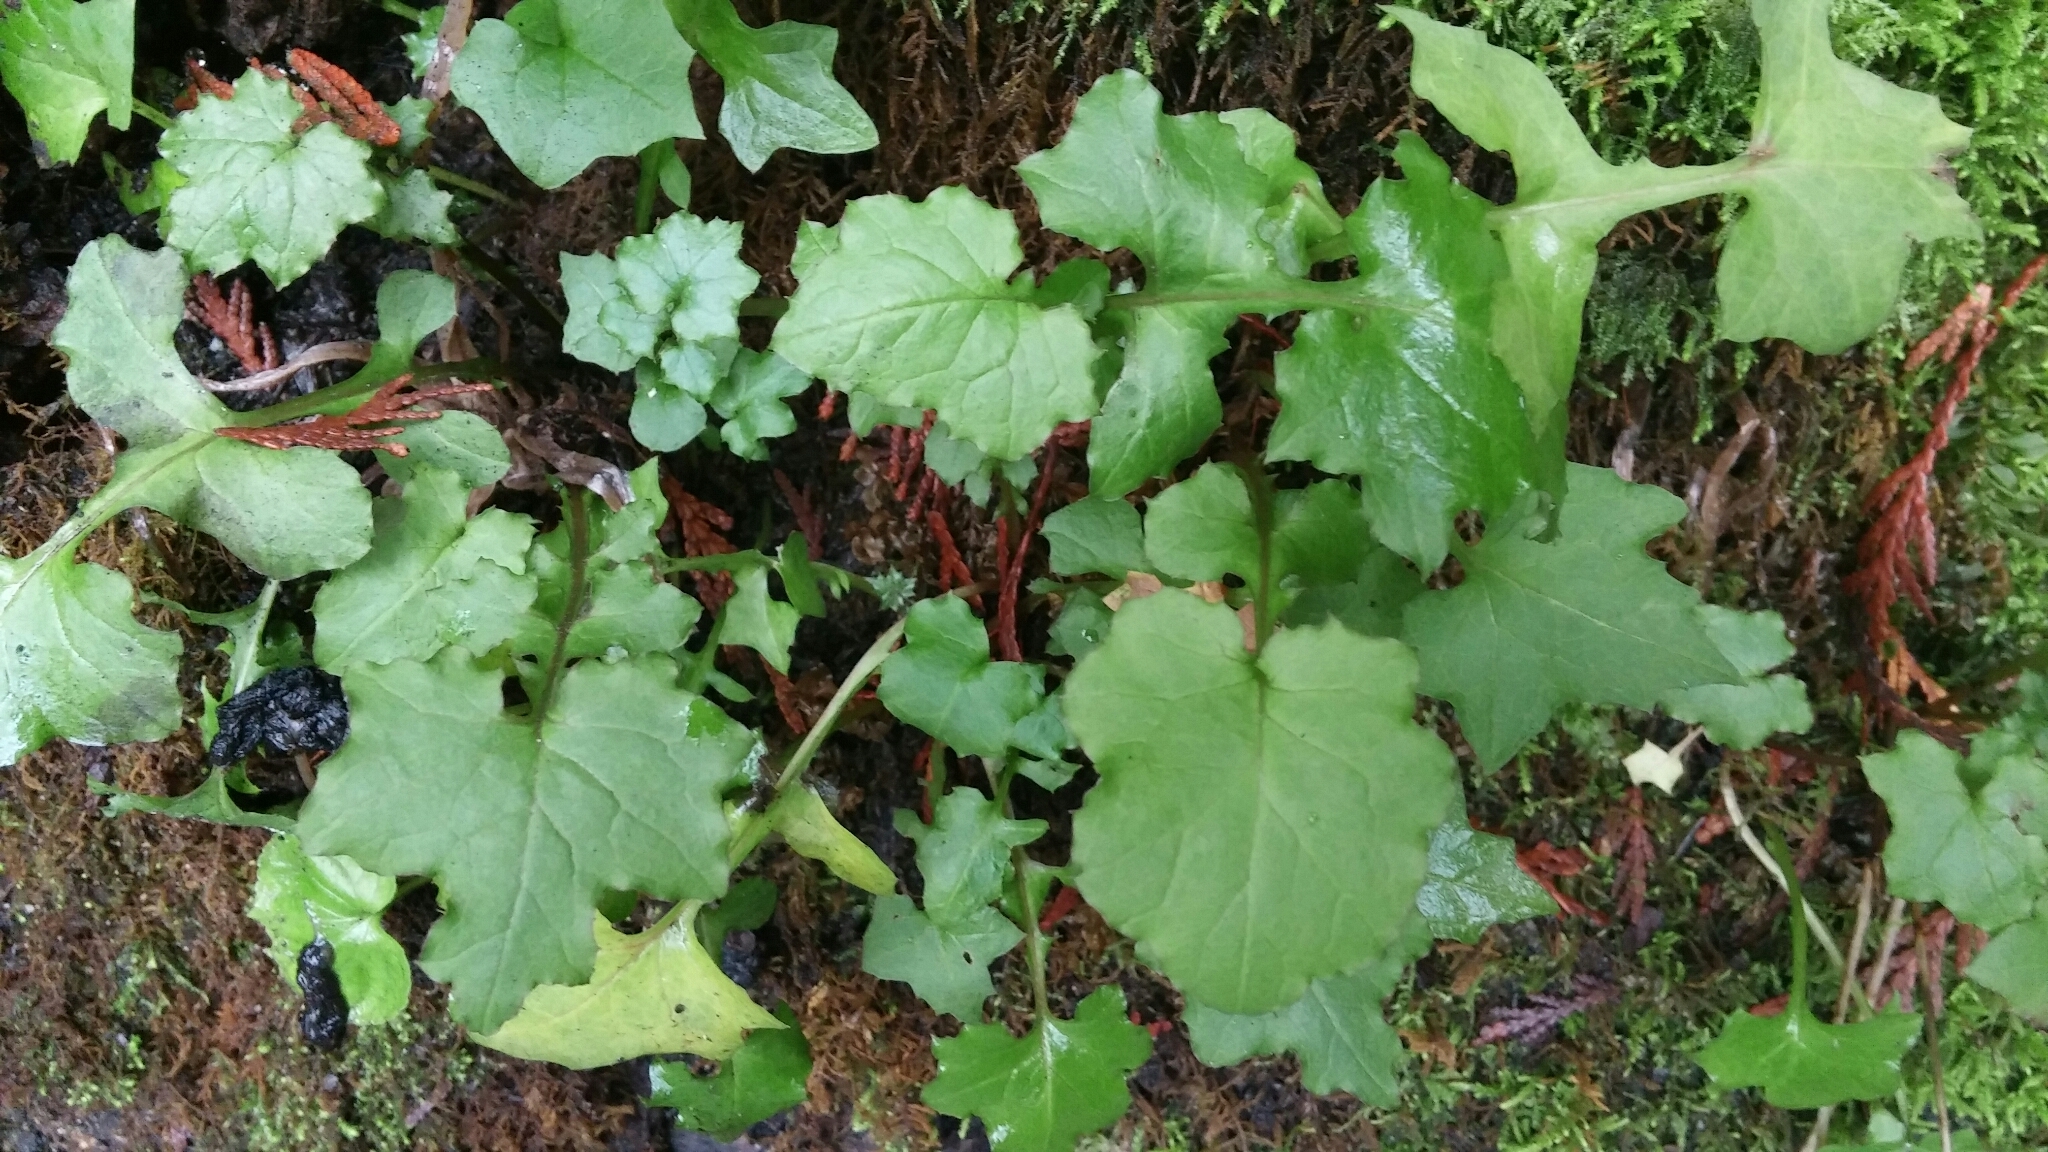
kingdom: Plantae
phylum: Tracheophyta
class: Magnoliopsida
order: Asterales
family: Asteraceae
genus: Mycelis
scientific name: Mycelis muralis
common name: Wall lettuce
